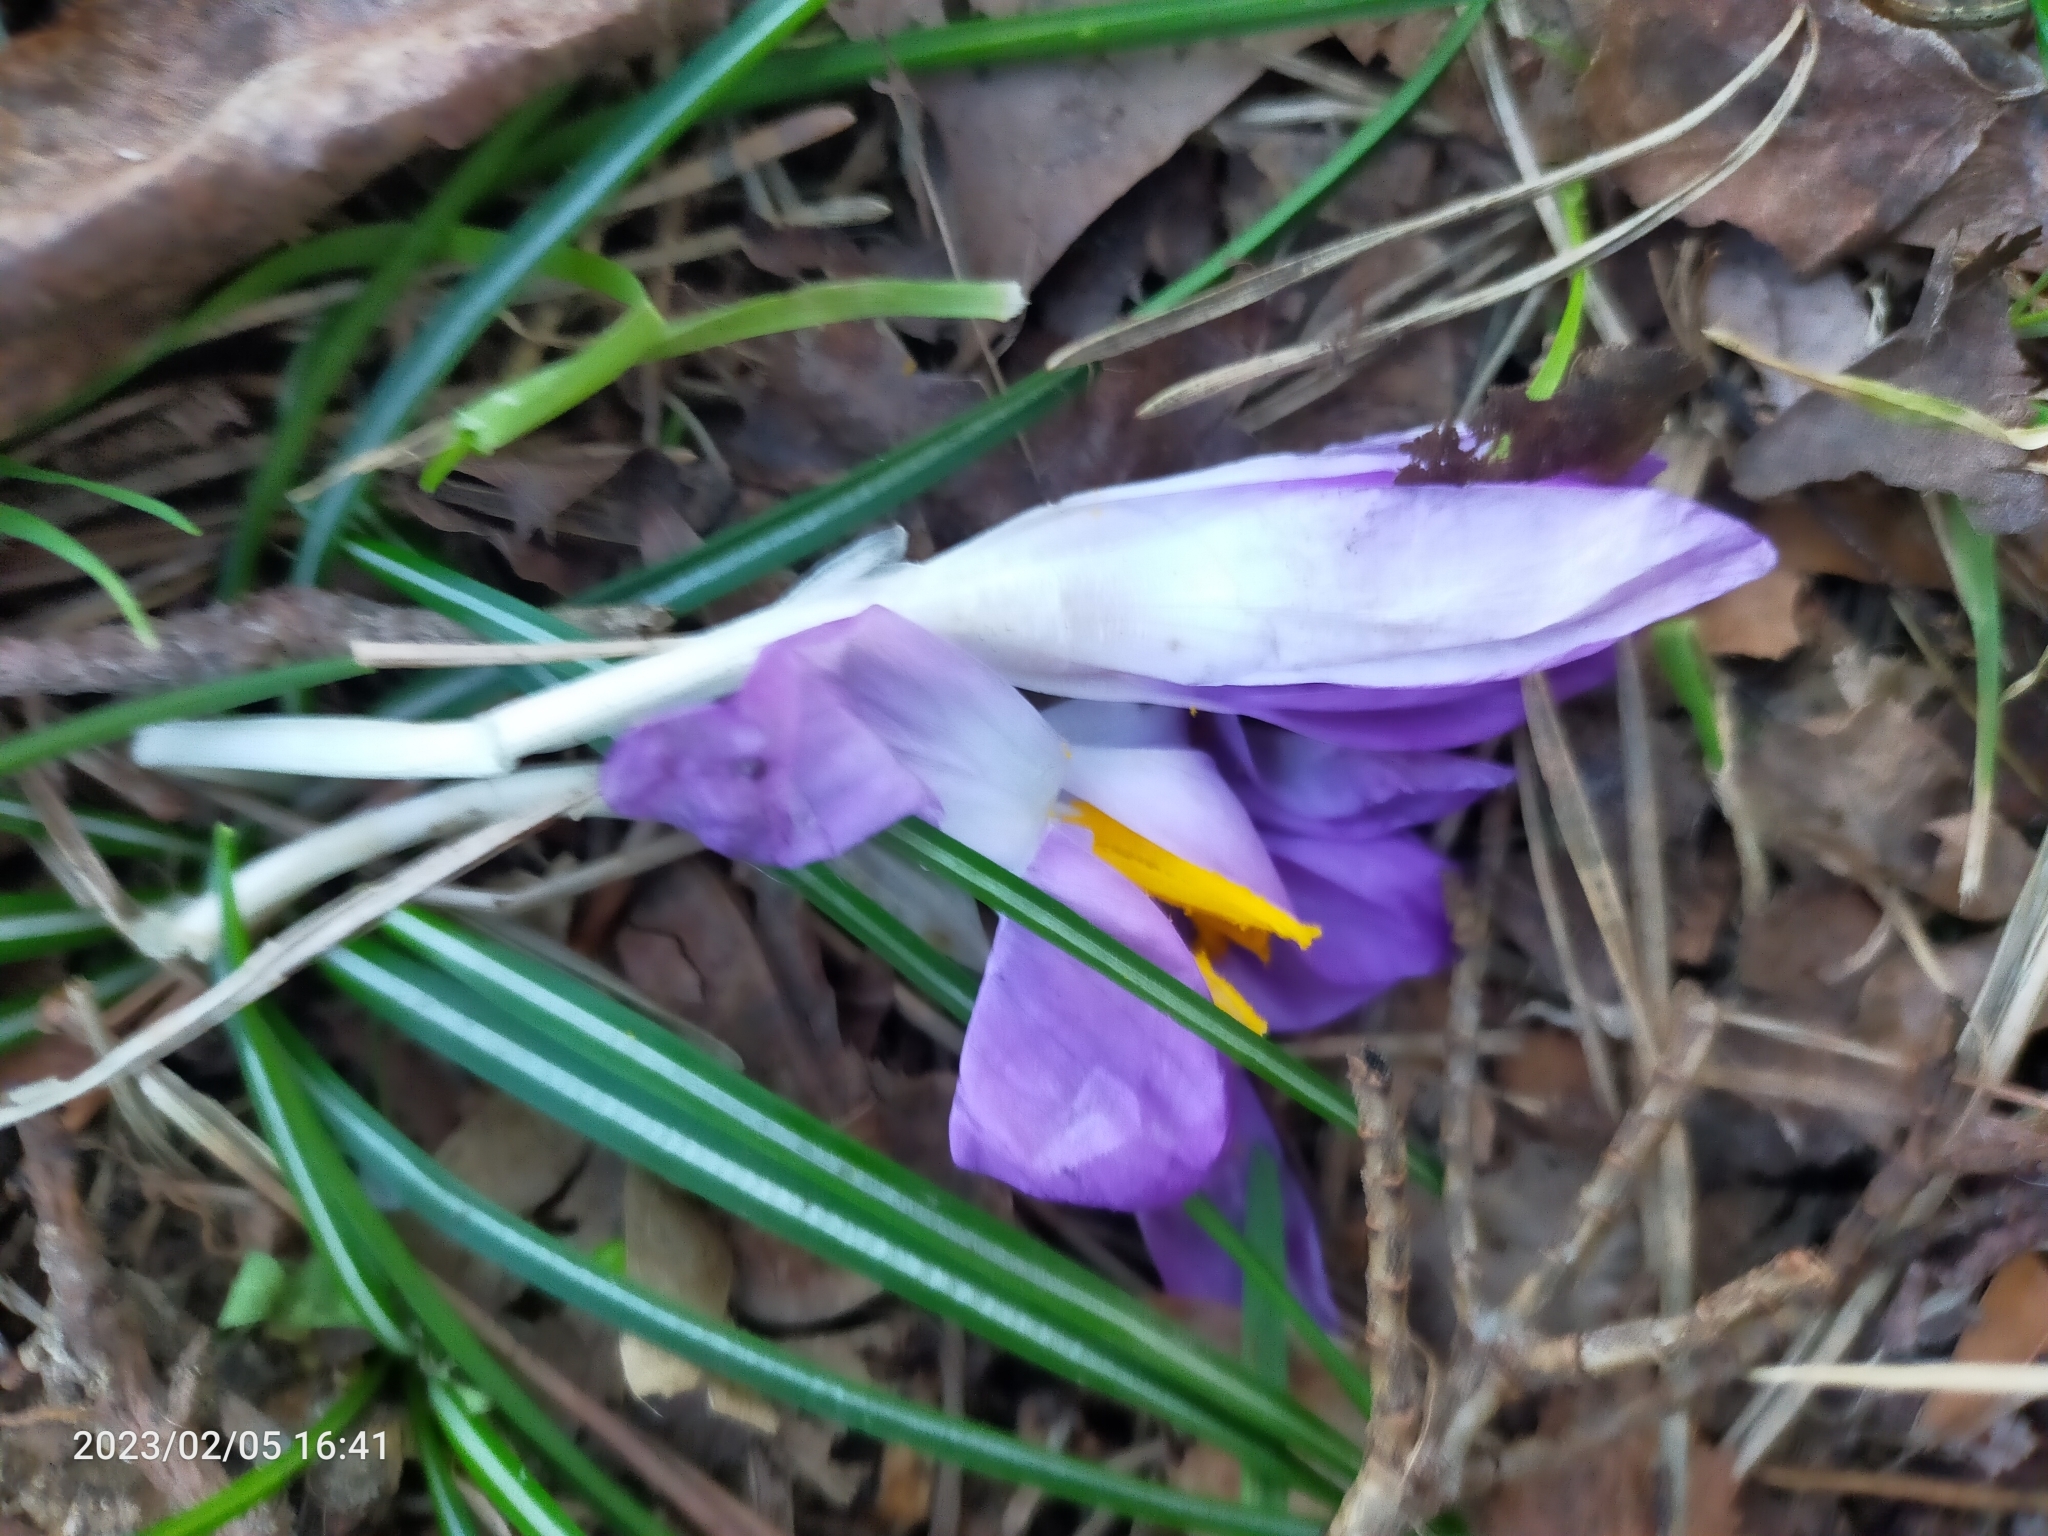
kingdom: Plantae
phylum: Tracheophyta
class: Liliopsida
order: Asparagales
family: Iridaceae
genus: Crocus
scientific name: Crocus tommasinianus
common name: Early crocus
